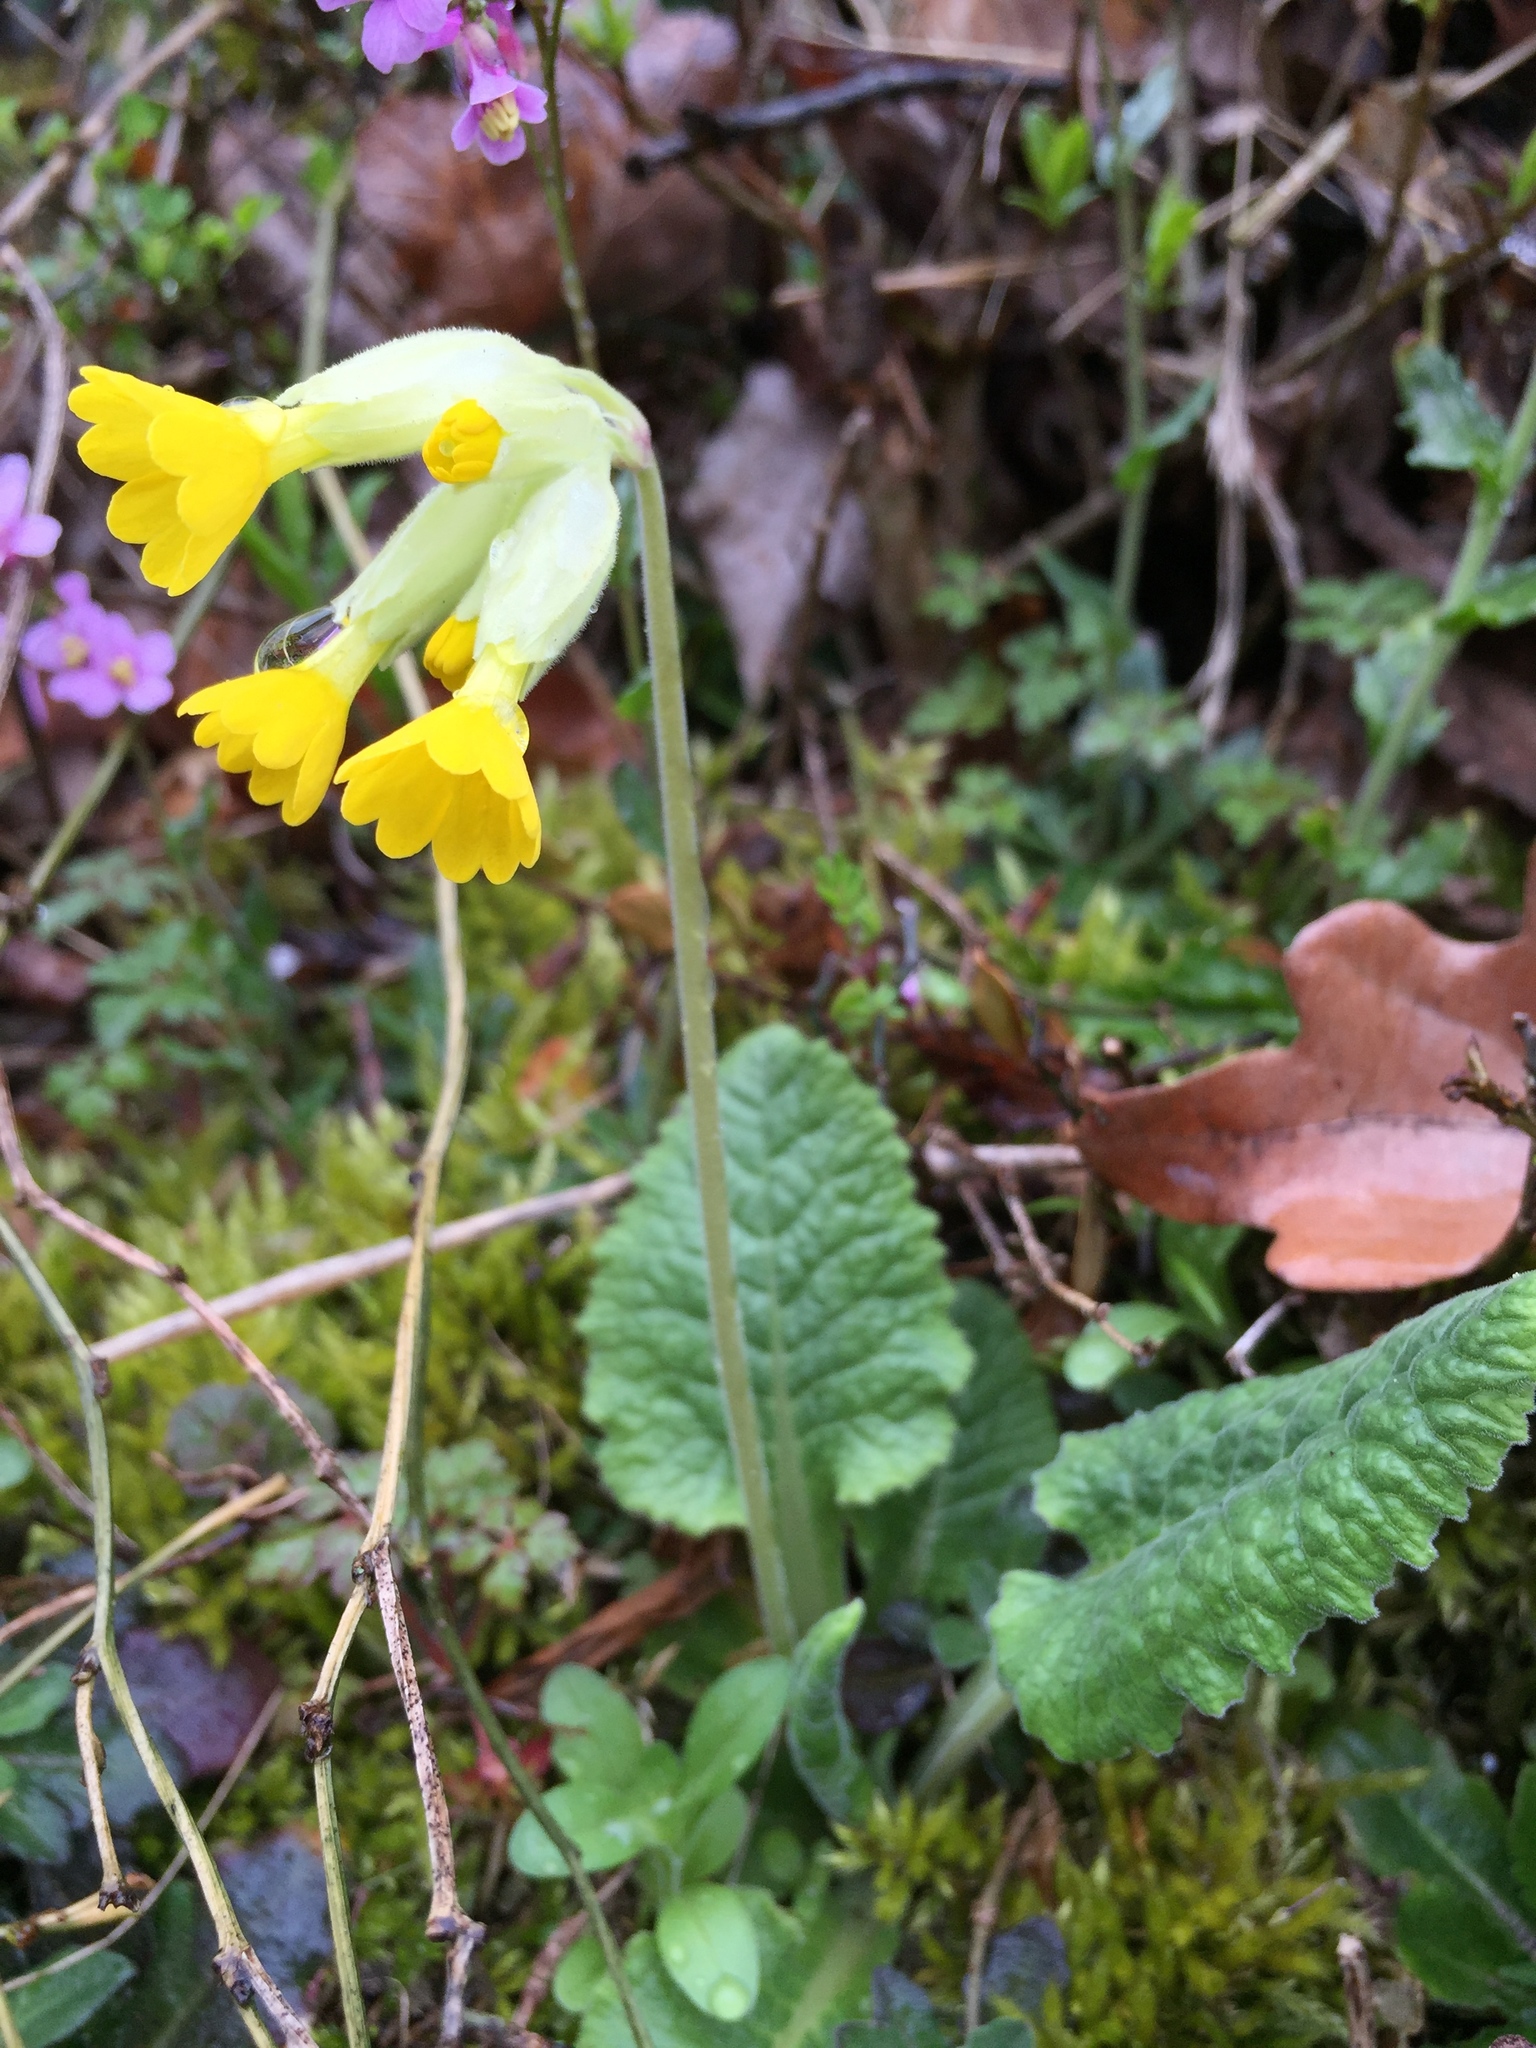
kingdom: Plantae
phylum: Tracheophyta
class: Magnoliopsida
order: Ericales
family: Primulaceae
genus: Primula
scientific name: Primula veris
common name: Cowslip
